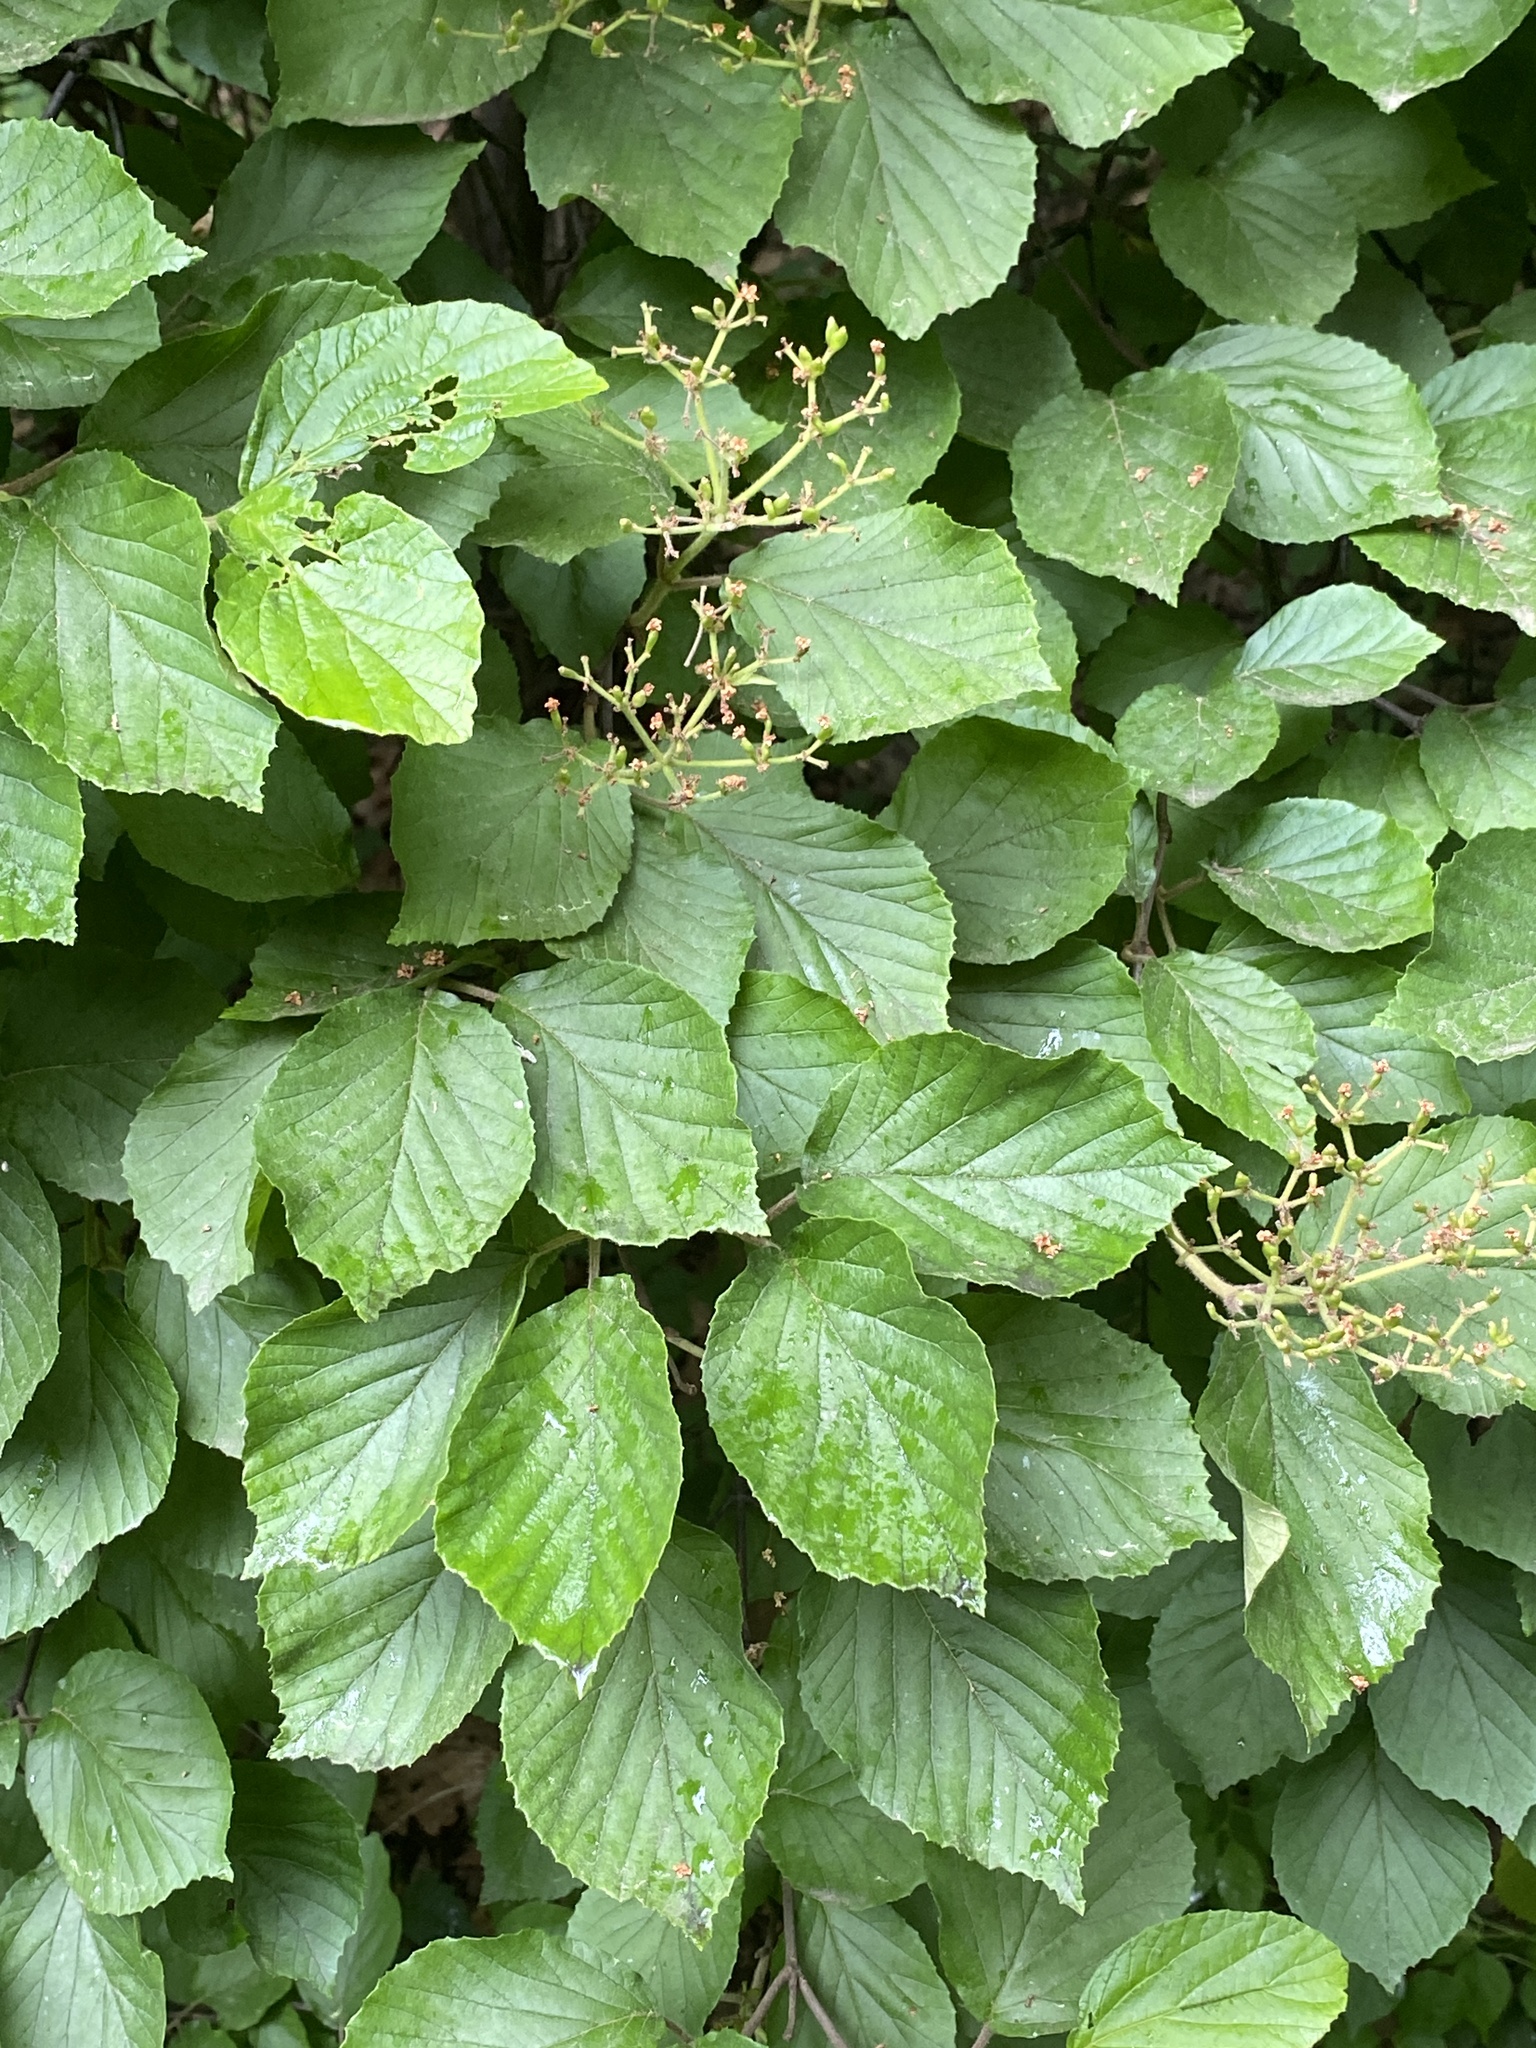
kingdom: Plantae
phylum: Tracheophyta
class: Magnoliopsida
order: Dipsacales
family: Viburnaceae
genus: Viburnum
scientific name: Viburnum dilatatum
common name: Linden arrowwood
